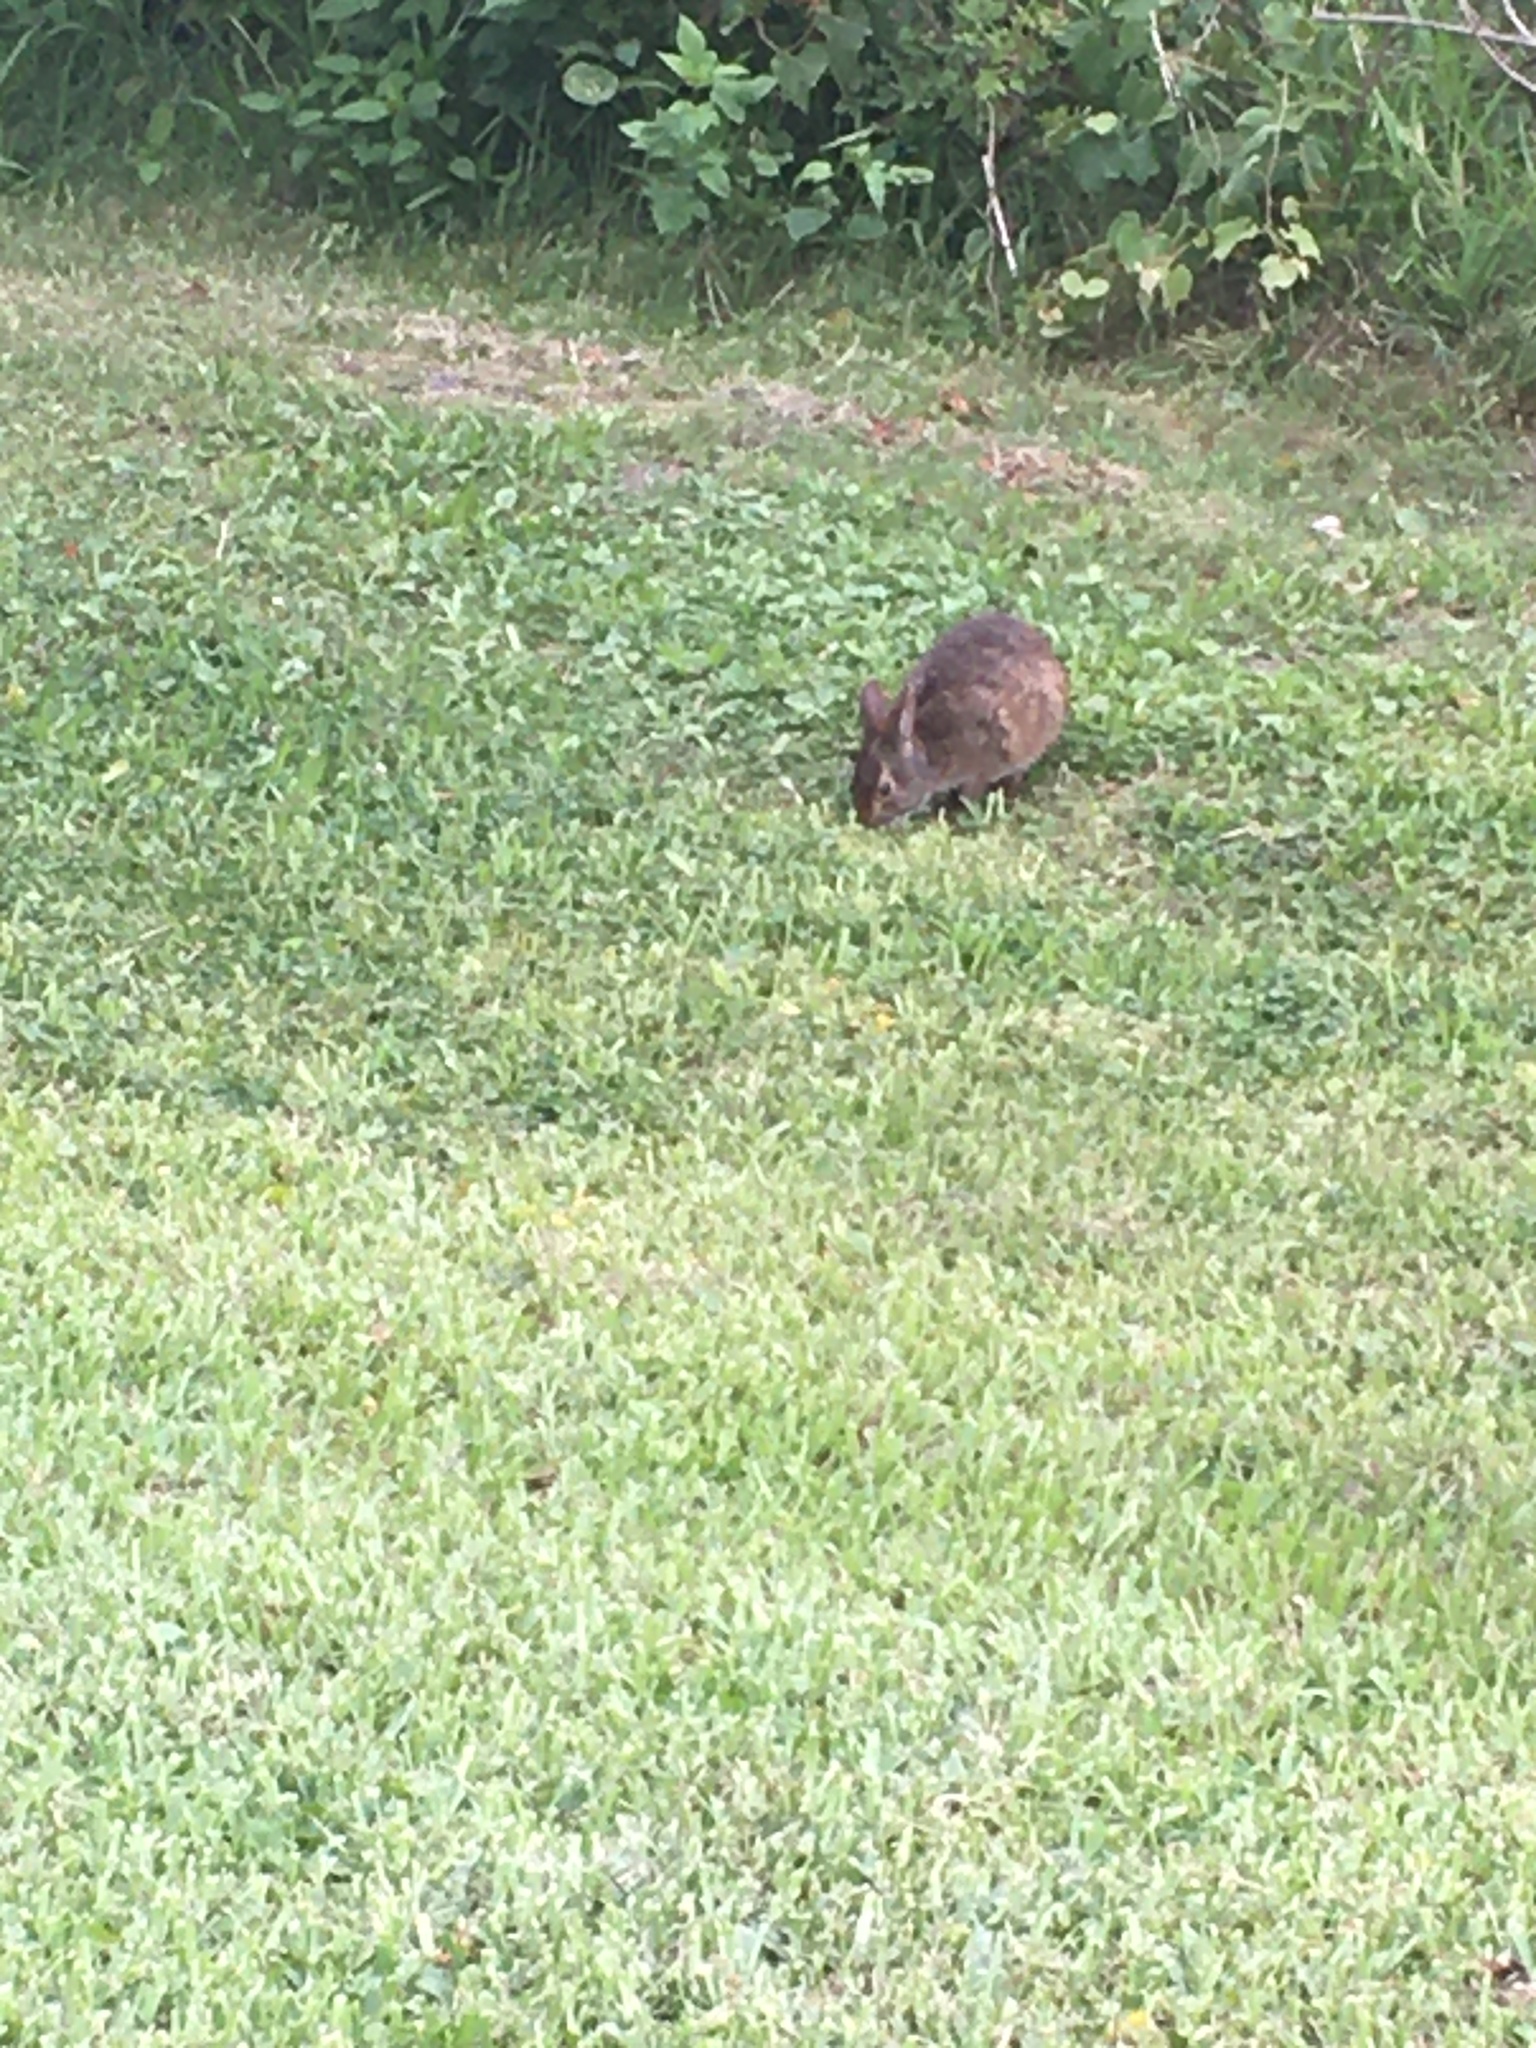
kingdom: Animalia
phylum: Chordata
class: Mammalia
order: Lagomorpha
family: Leporidae
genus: Sylvilagus
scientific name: Sylvilagus palustris
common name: Marsh rabbit
